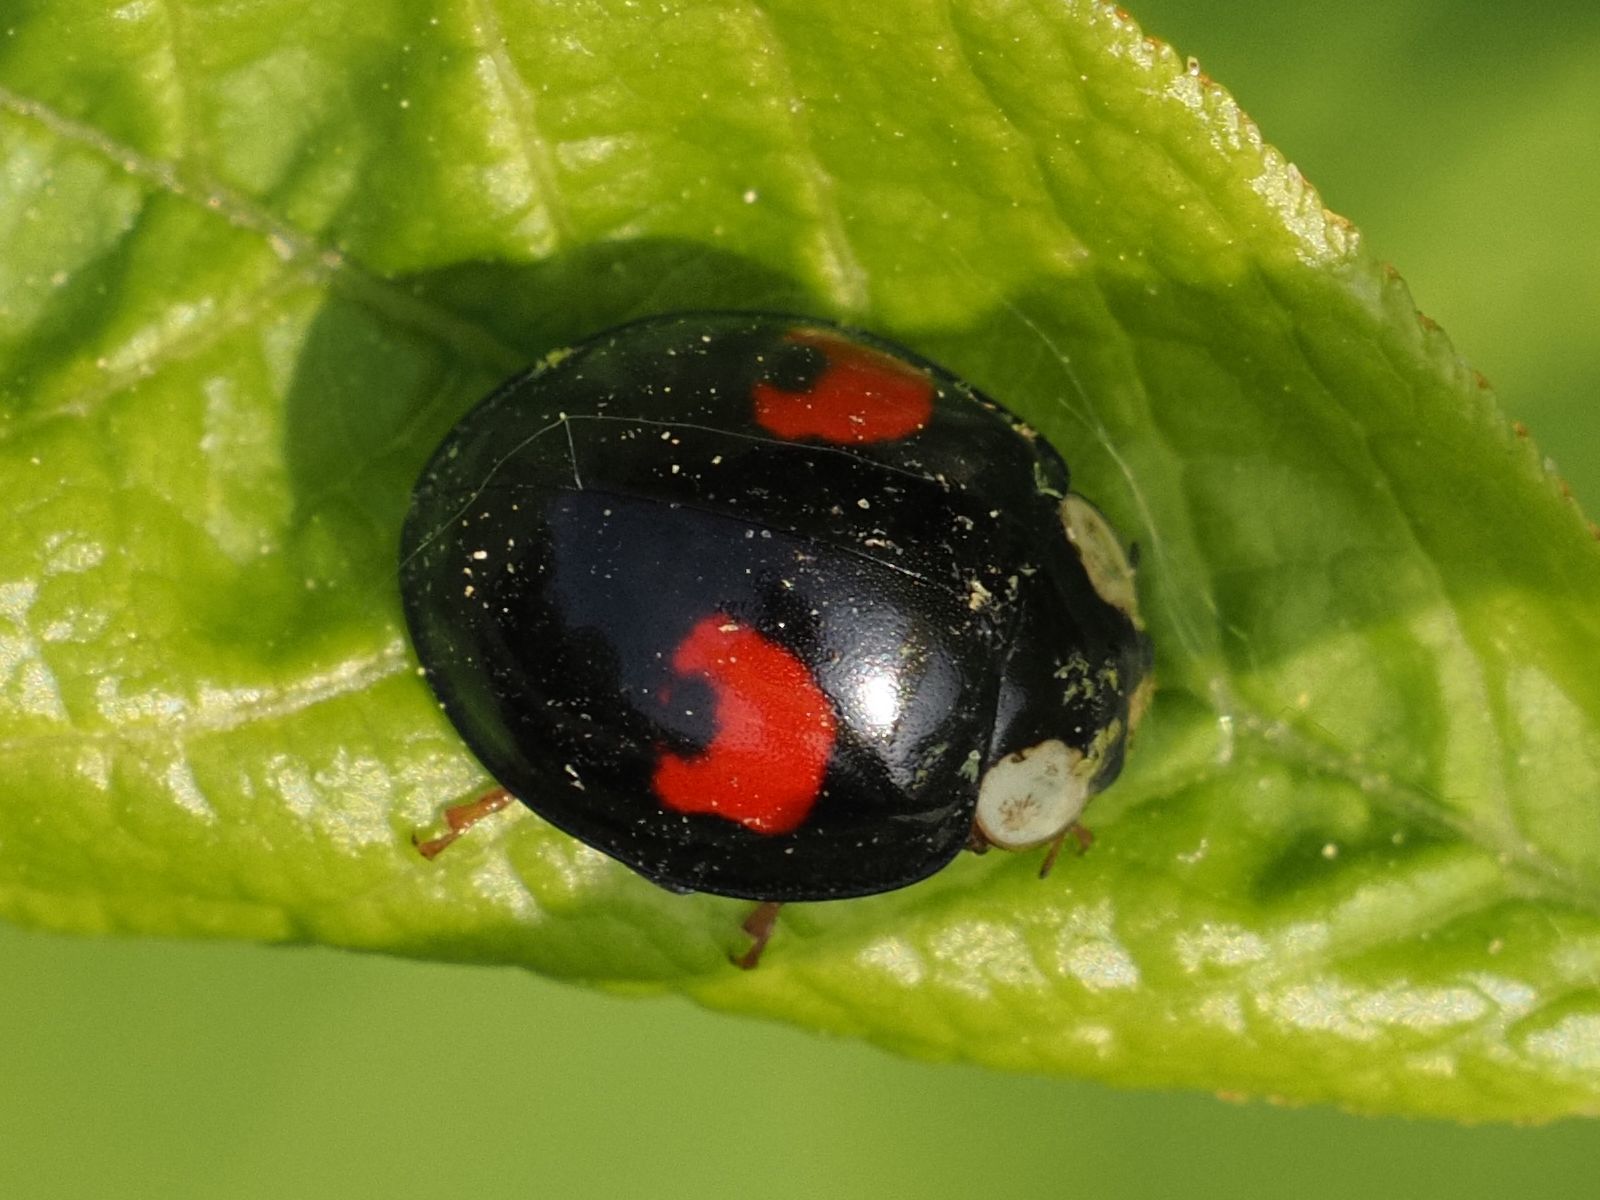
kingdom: Animalia
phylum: Arthropoda
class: Insecta
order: Coleoptera
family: Coccinellidae
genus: Harmonia
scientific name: Harmonia axyridis
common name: Harlequin ladybird
